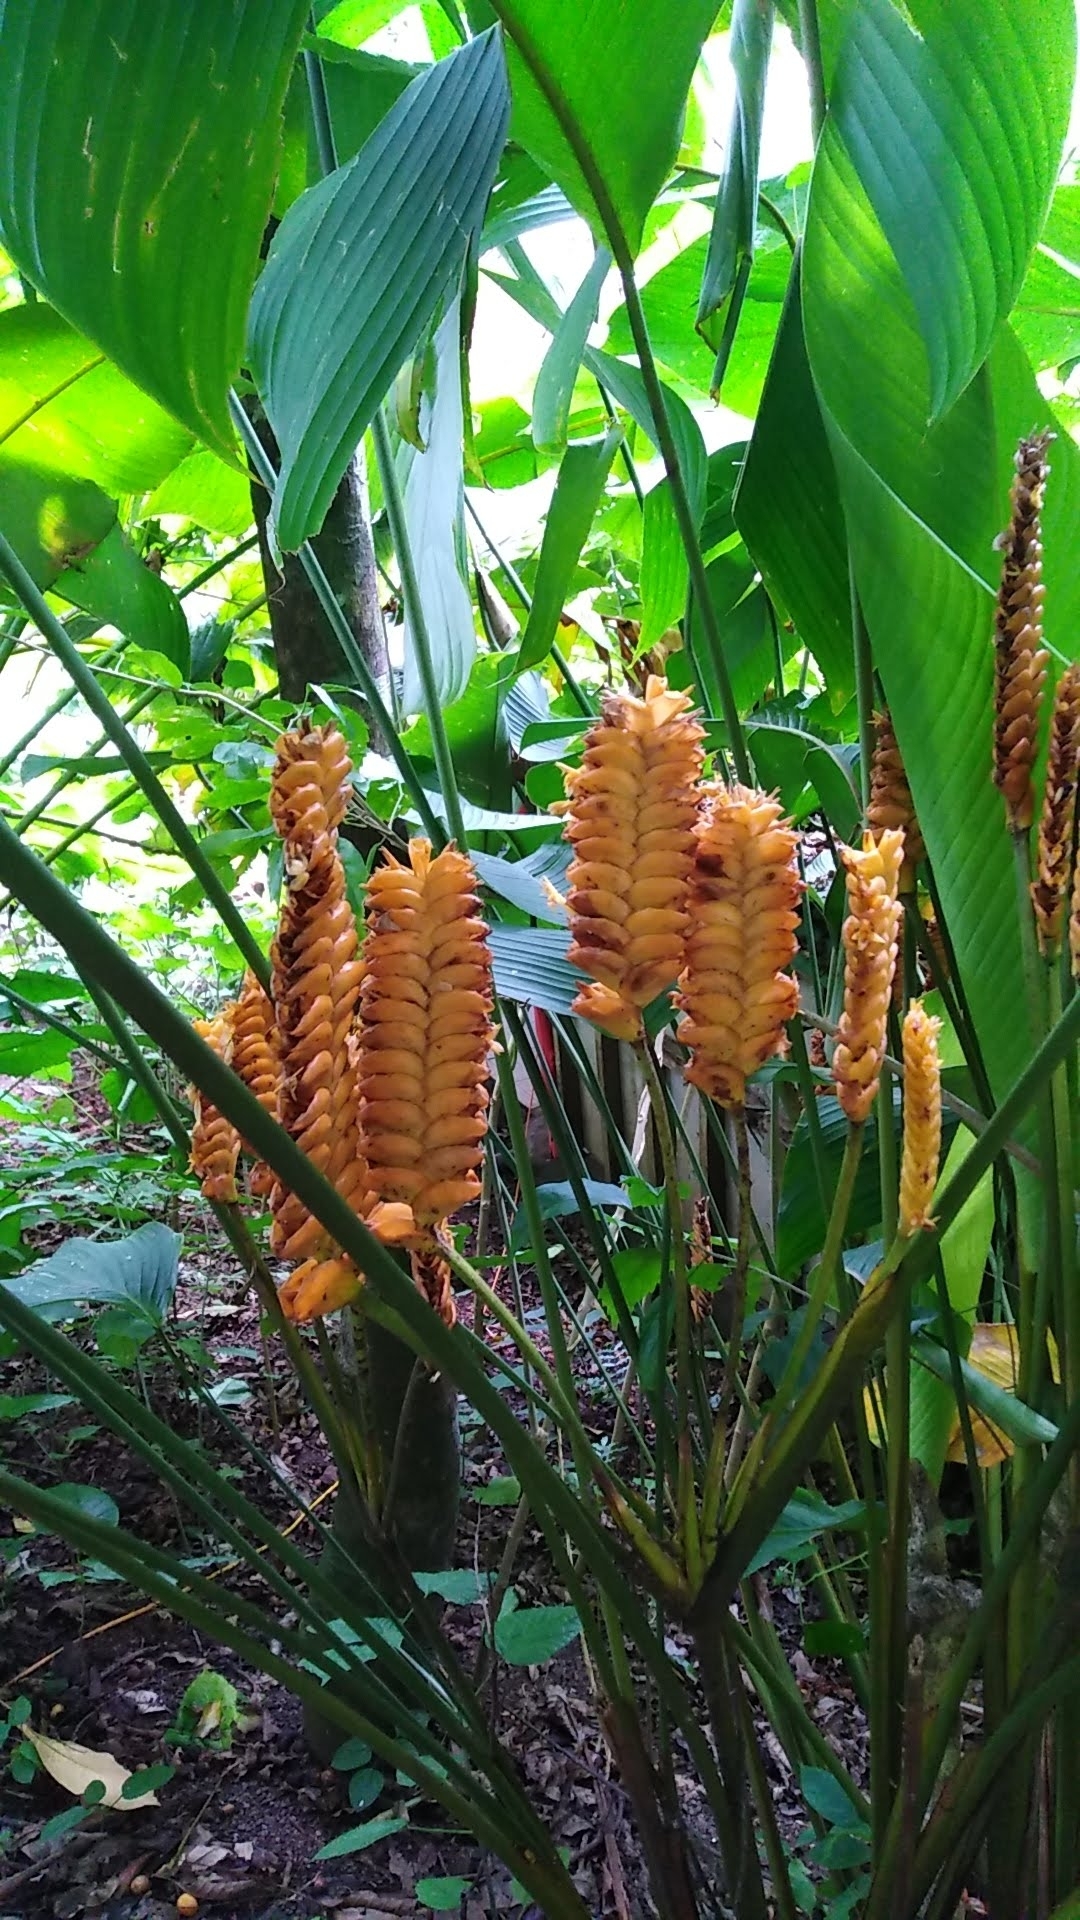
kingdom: Plantae
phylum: Tracheophyta
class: Liliopsida
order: Zingiberales
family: Marantaceae
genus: Calathea
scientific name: Calathea crotalifera
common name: Rattlesnake plant
